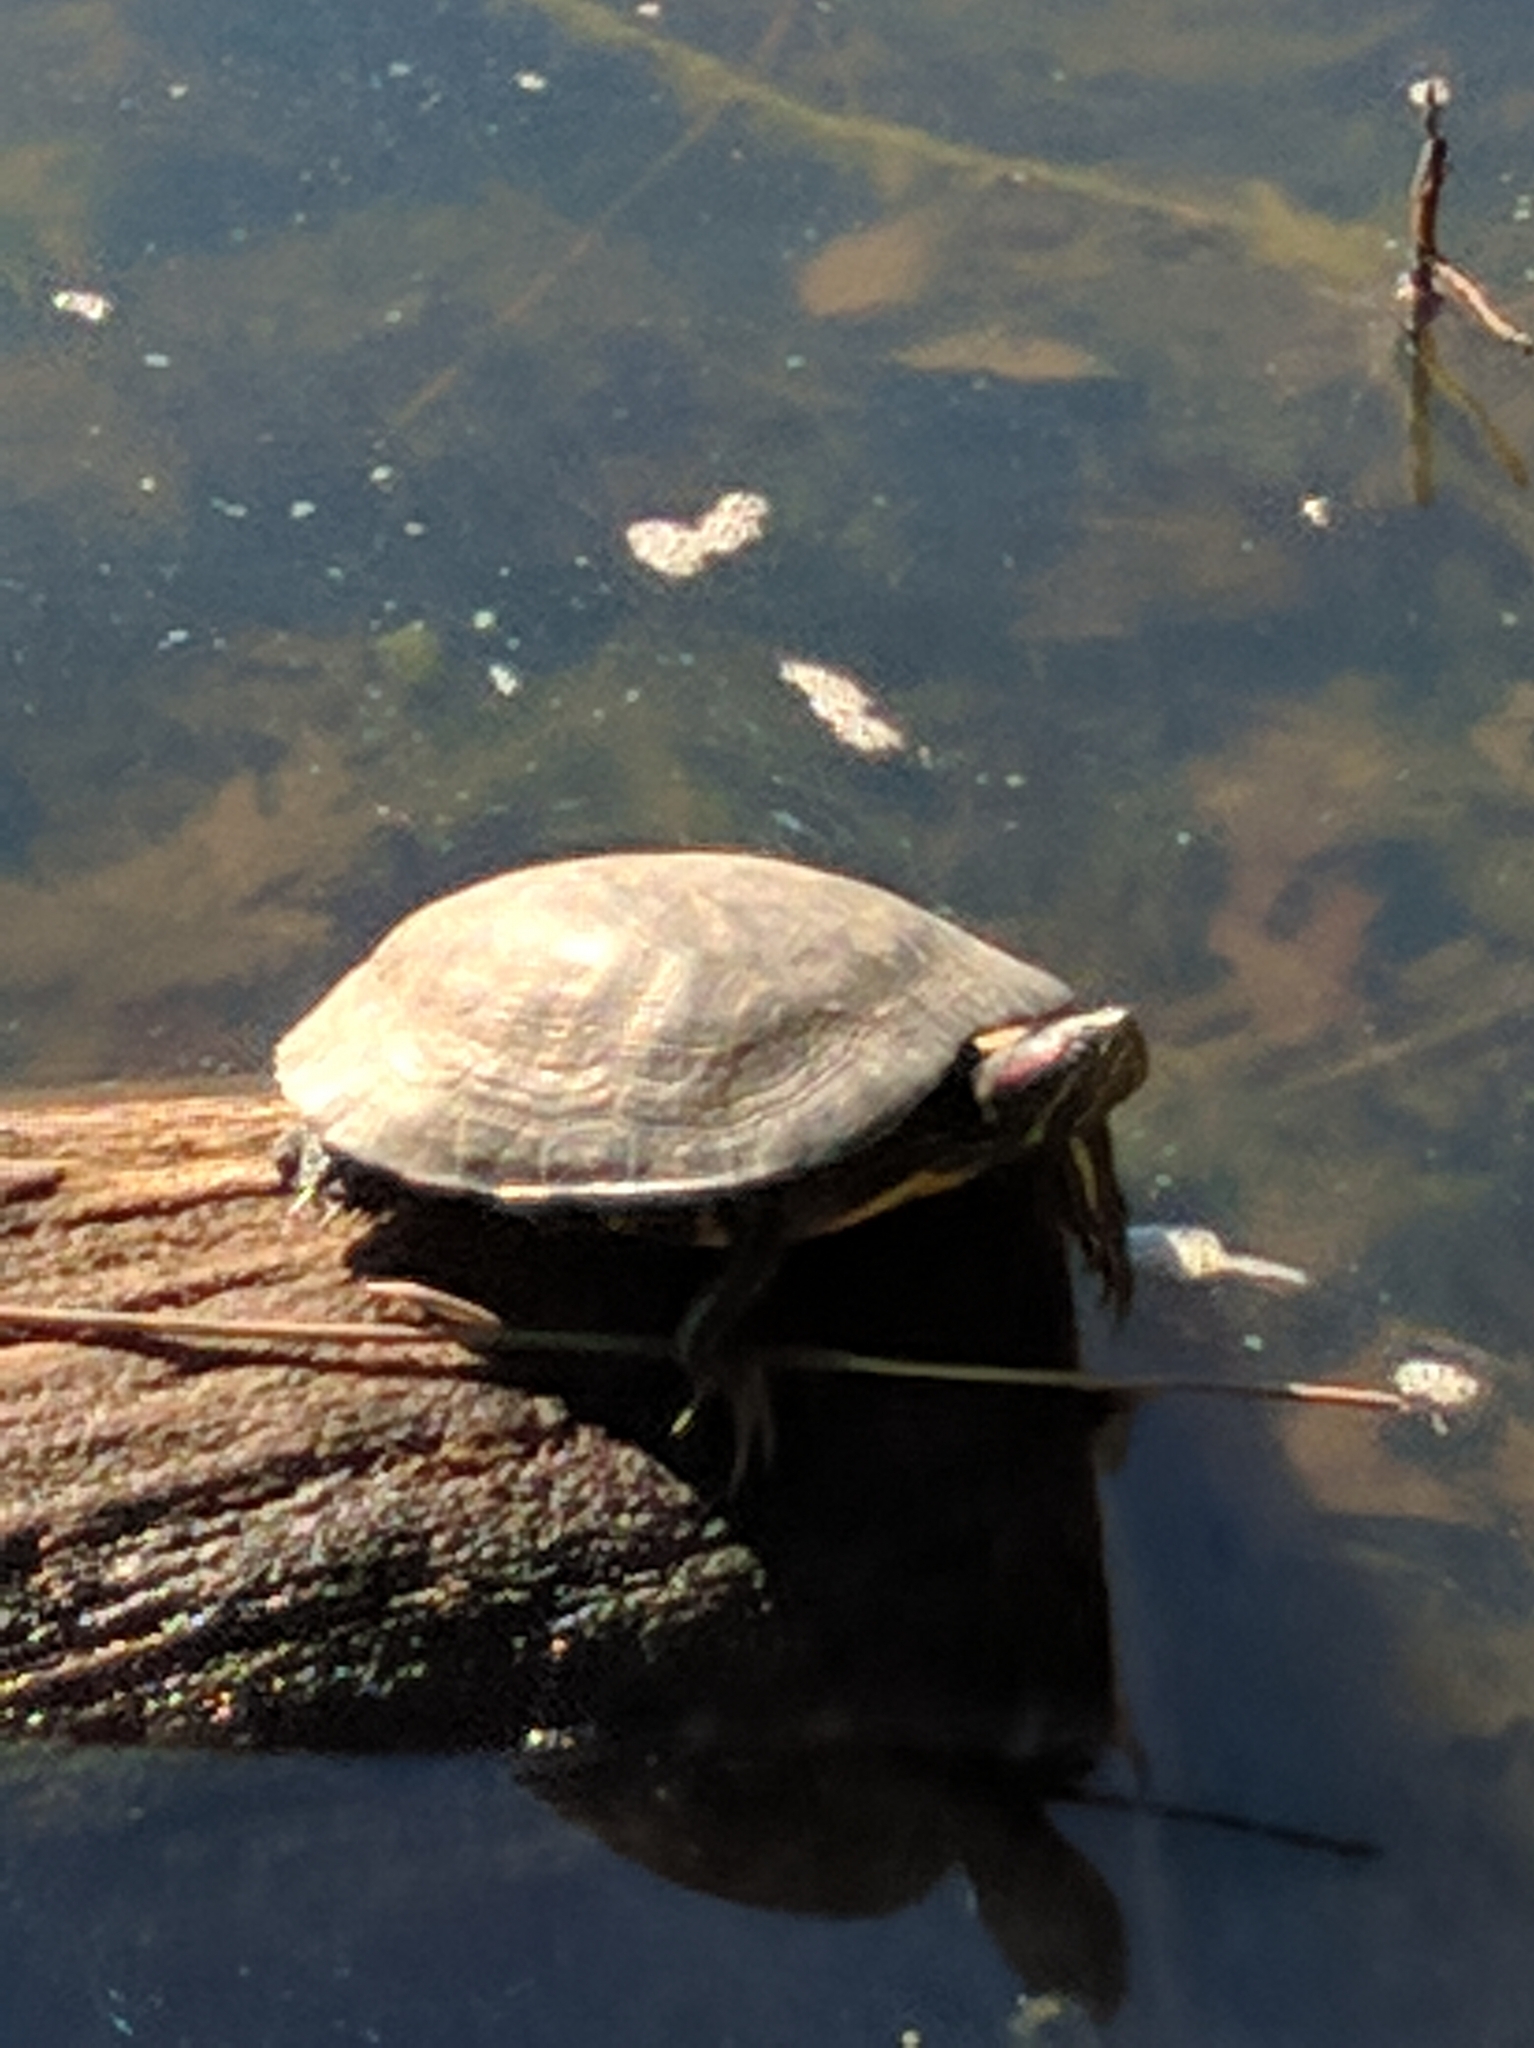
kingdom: Animalia
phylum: Chordata
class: Testudines
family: Emydidae
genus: Trachemys
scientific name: Trachemys scripta
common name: Slider
